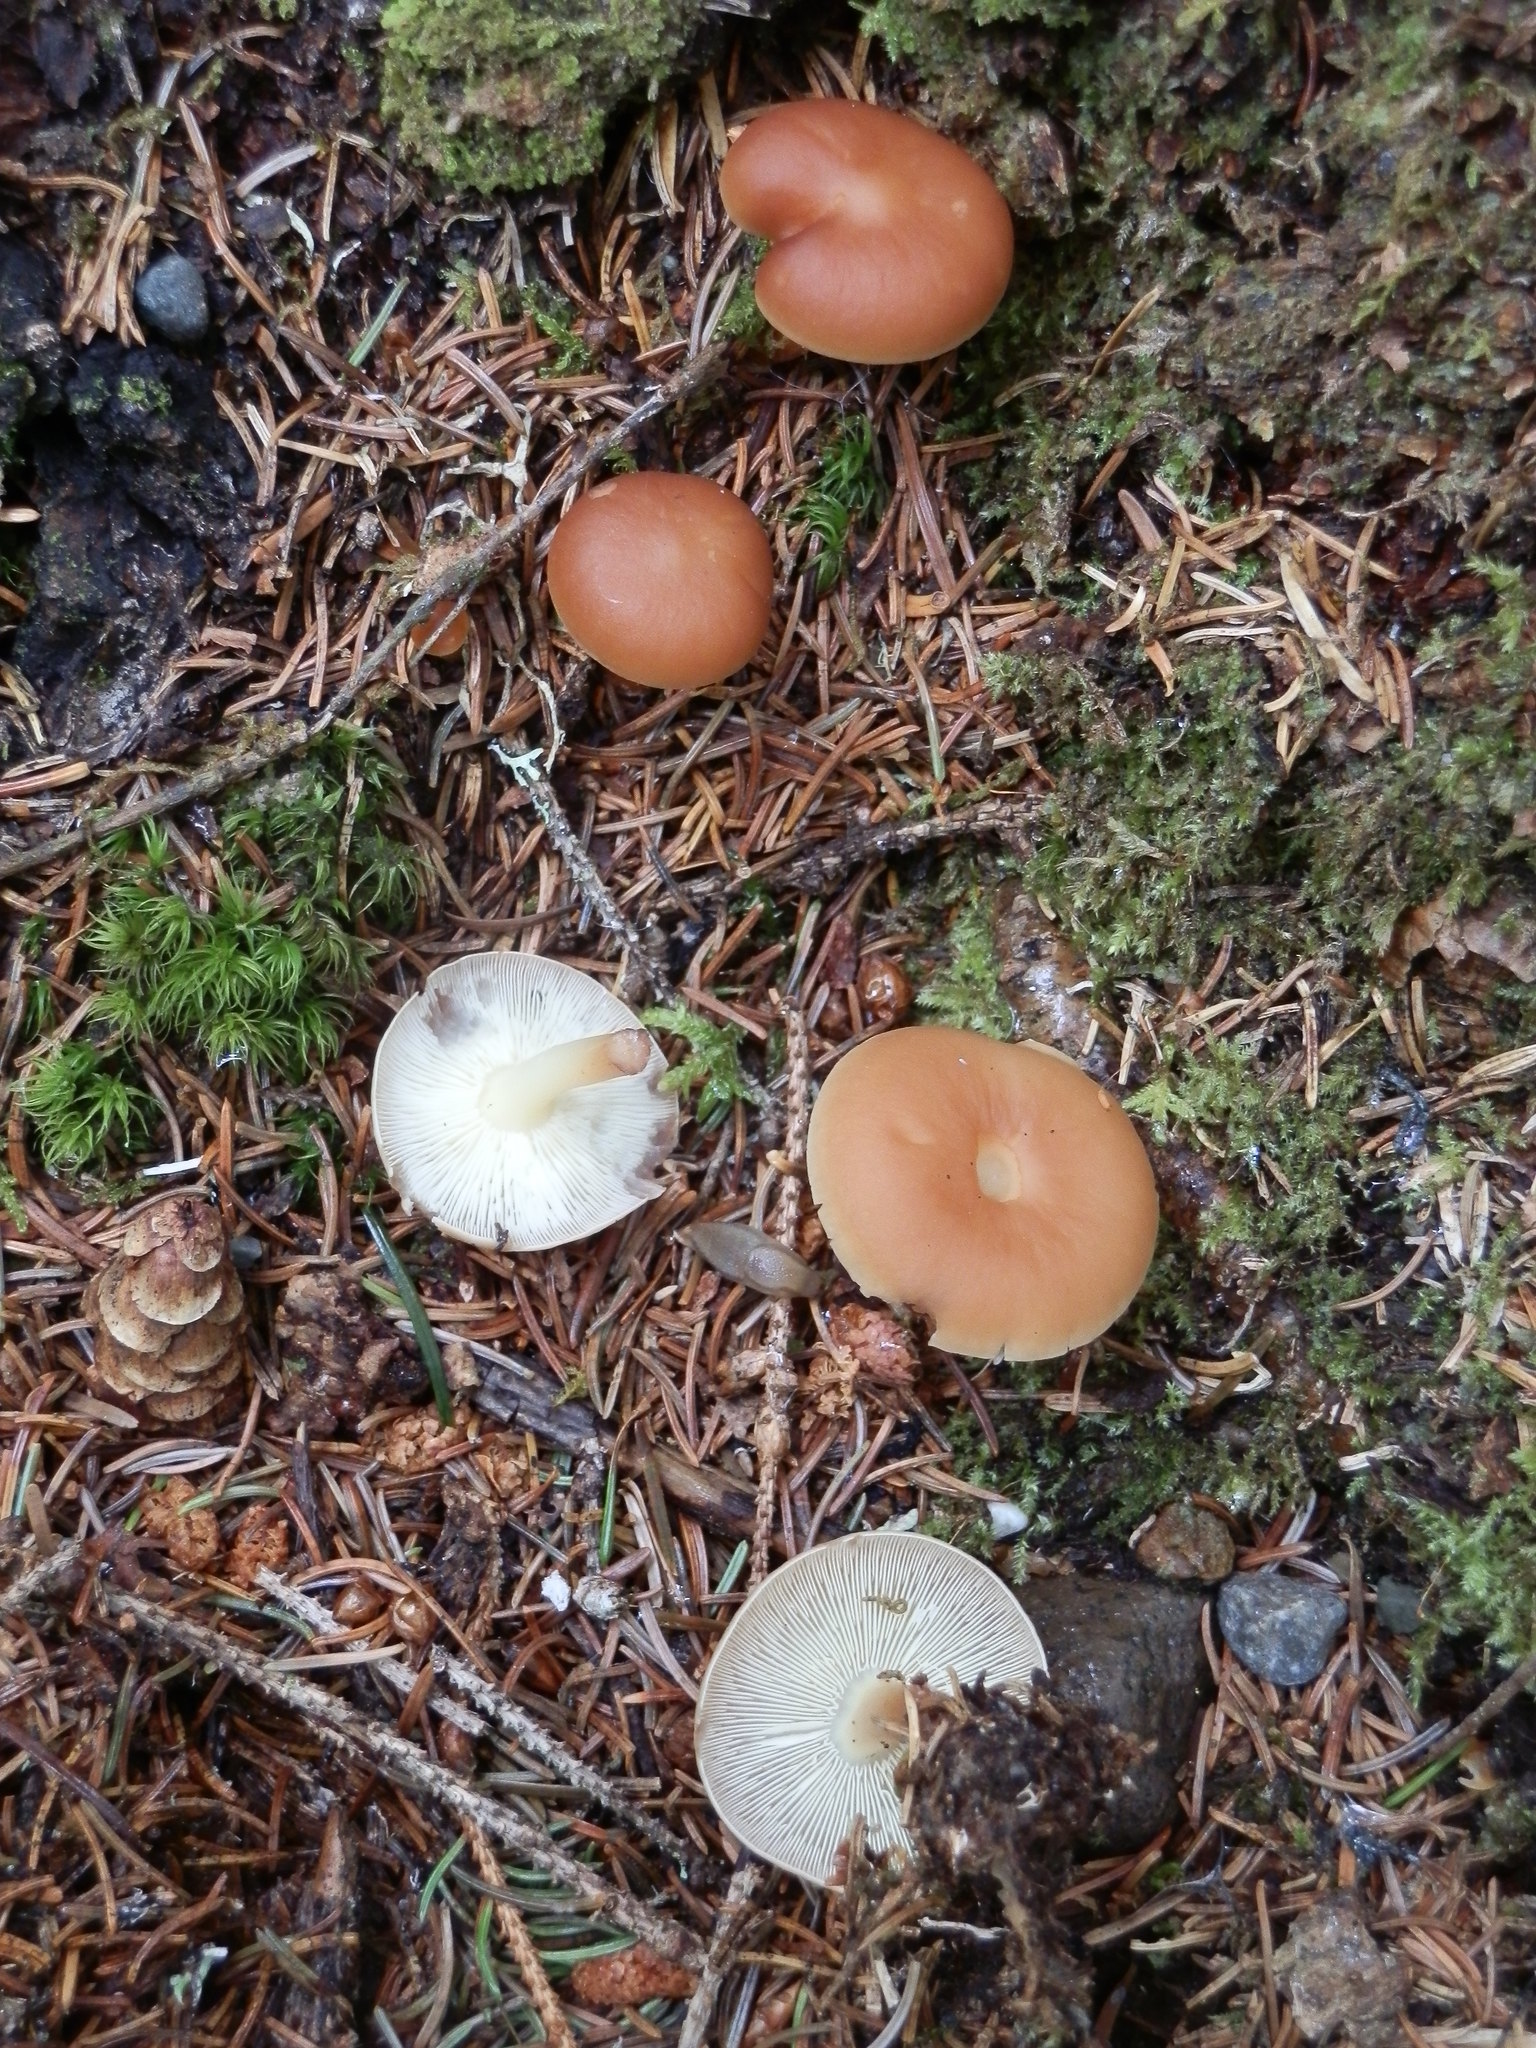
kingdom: Fungi
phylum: Basidiomycota
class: Agaricomycetes
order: Agaricales
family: Omphalotaceae
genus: Gymnopus
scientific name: Gymnopus dryophilus
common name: Penny top
